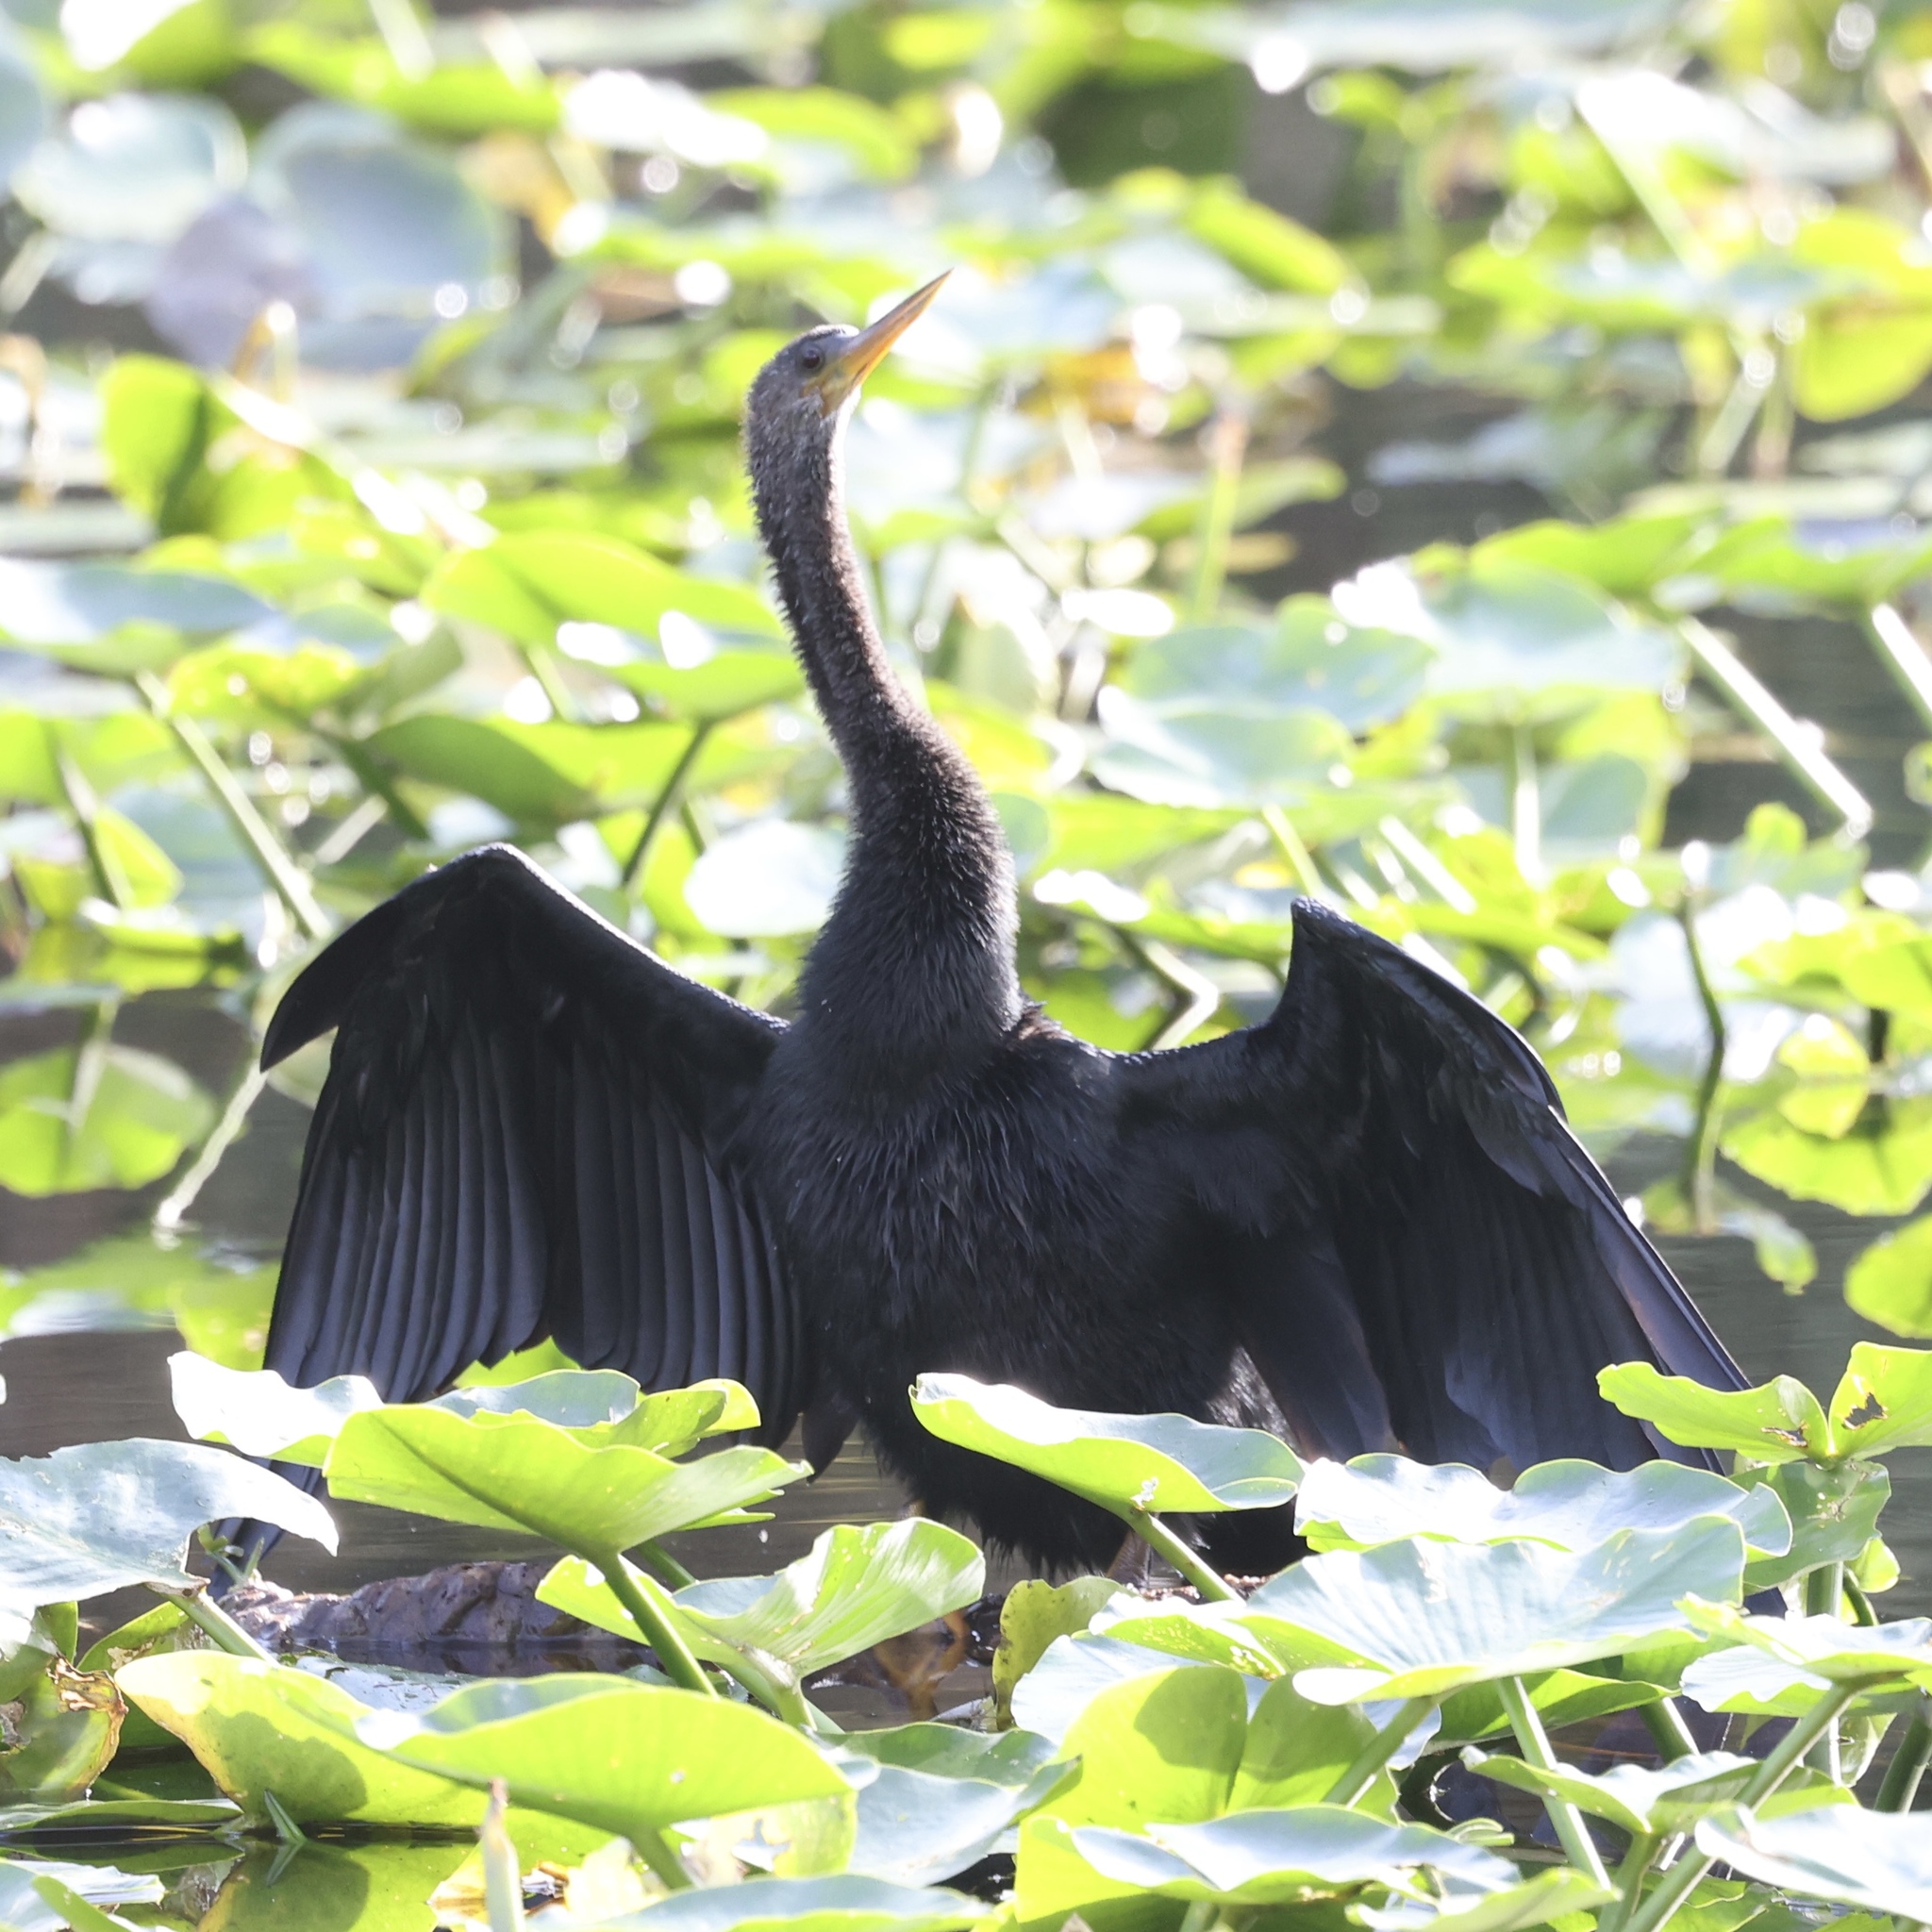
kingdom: Animalia
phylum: Chordata
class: Aves
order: Suliformes
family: Anhingidae
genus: Anhinga
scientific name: Anhinga anhinga
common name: Anhinga
